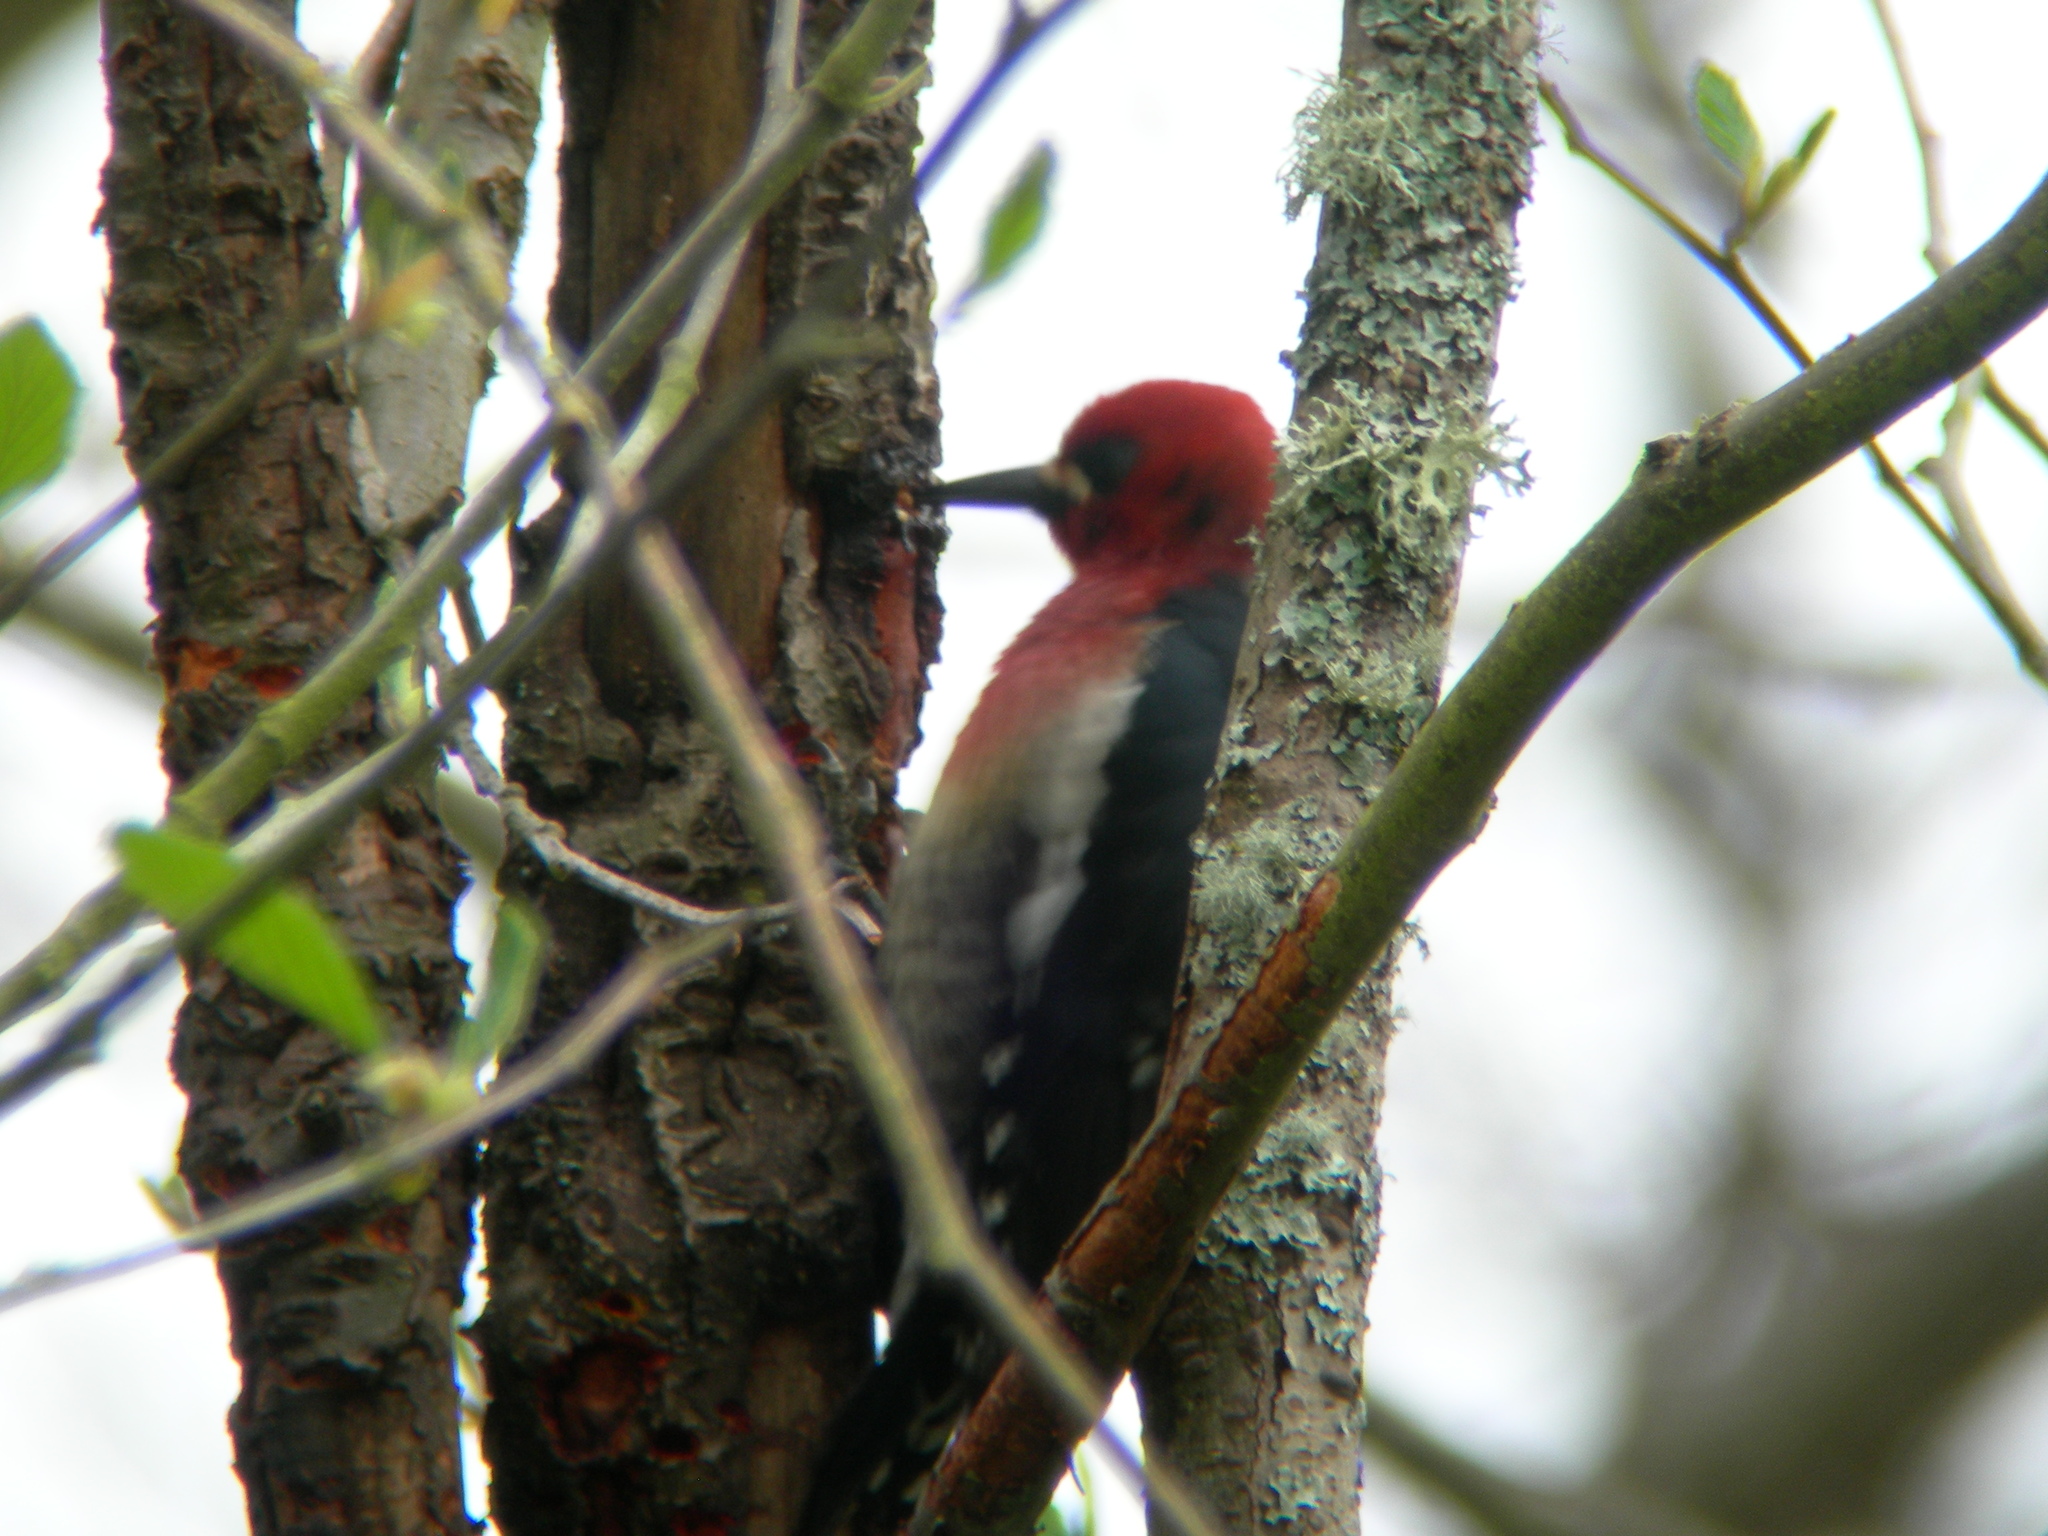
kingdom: Animalia
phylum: Chordata
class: Aves
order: Piciformes
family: Picidae
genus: Sphyrapicus
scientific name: Sphyrapicus ruber
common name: Red-breasted sapsucker
